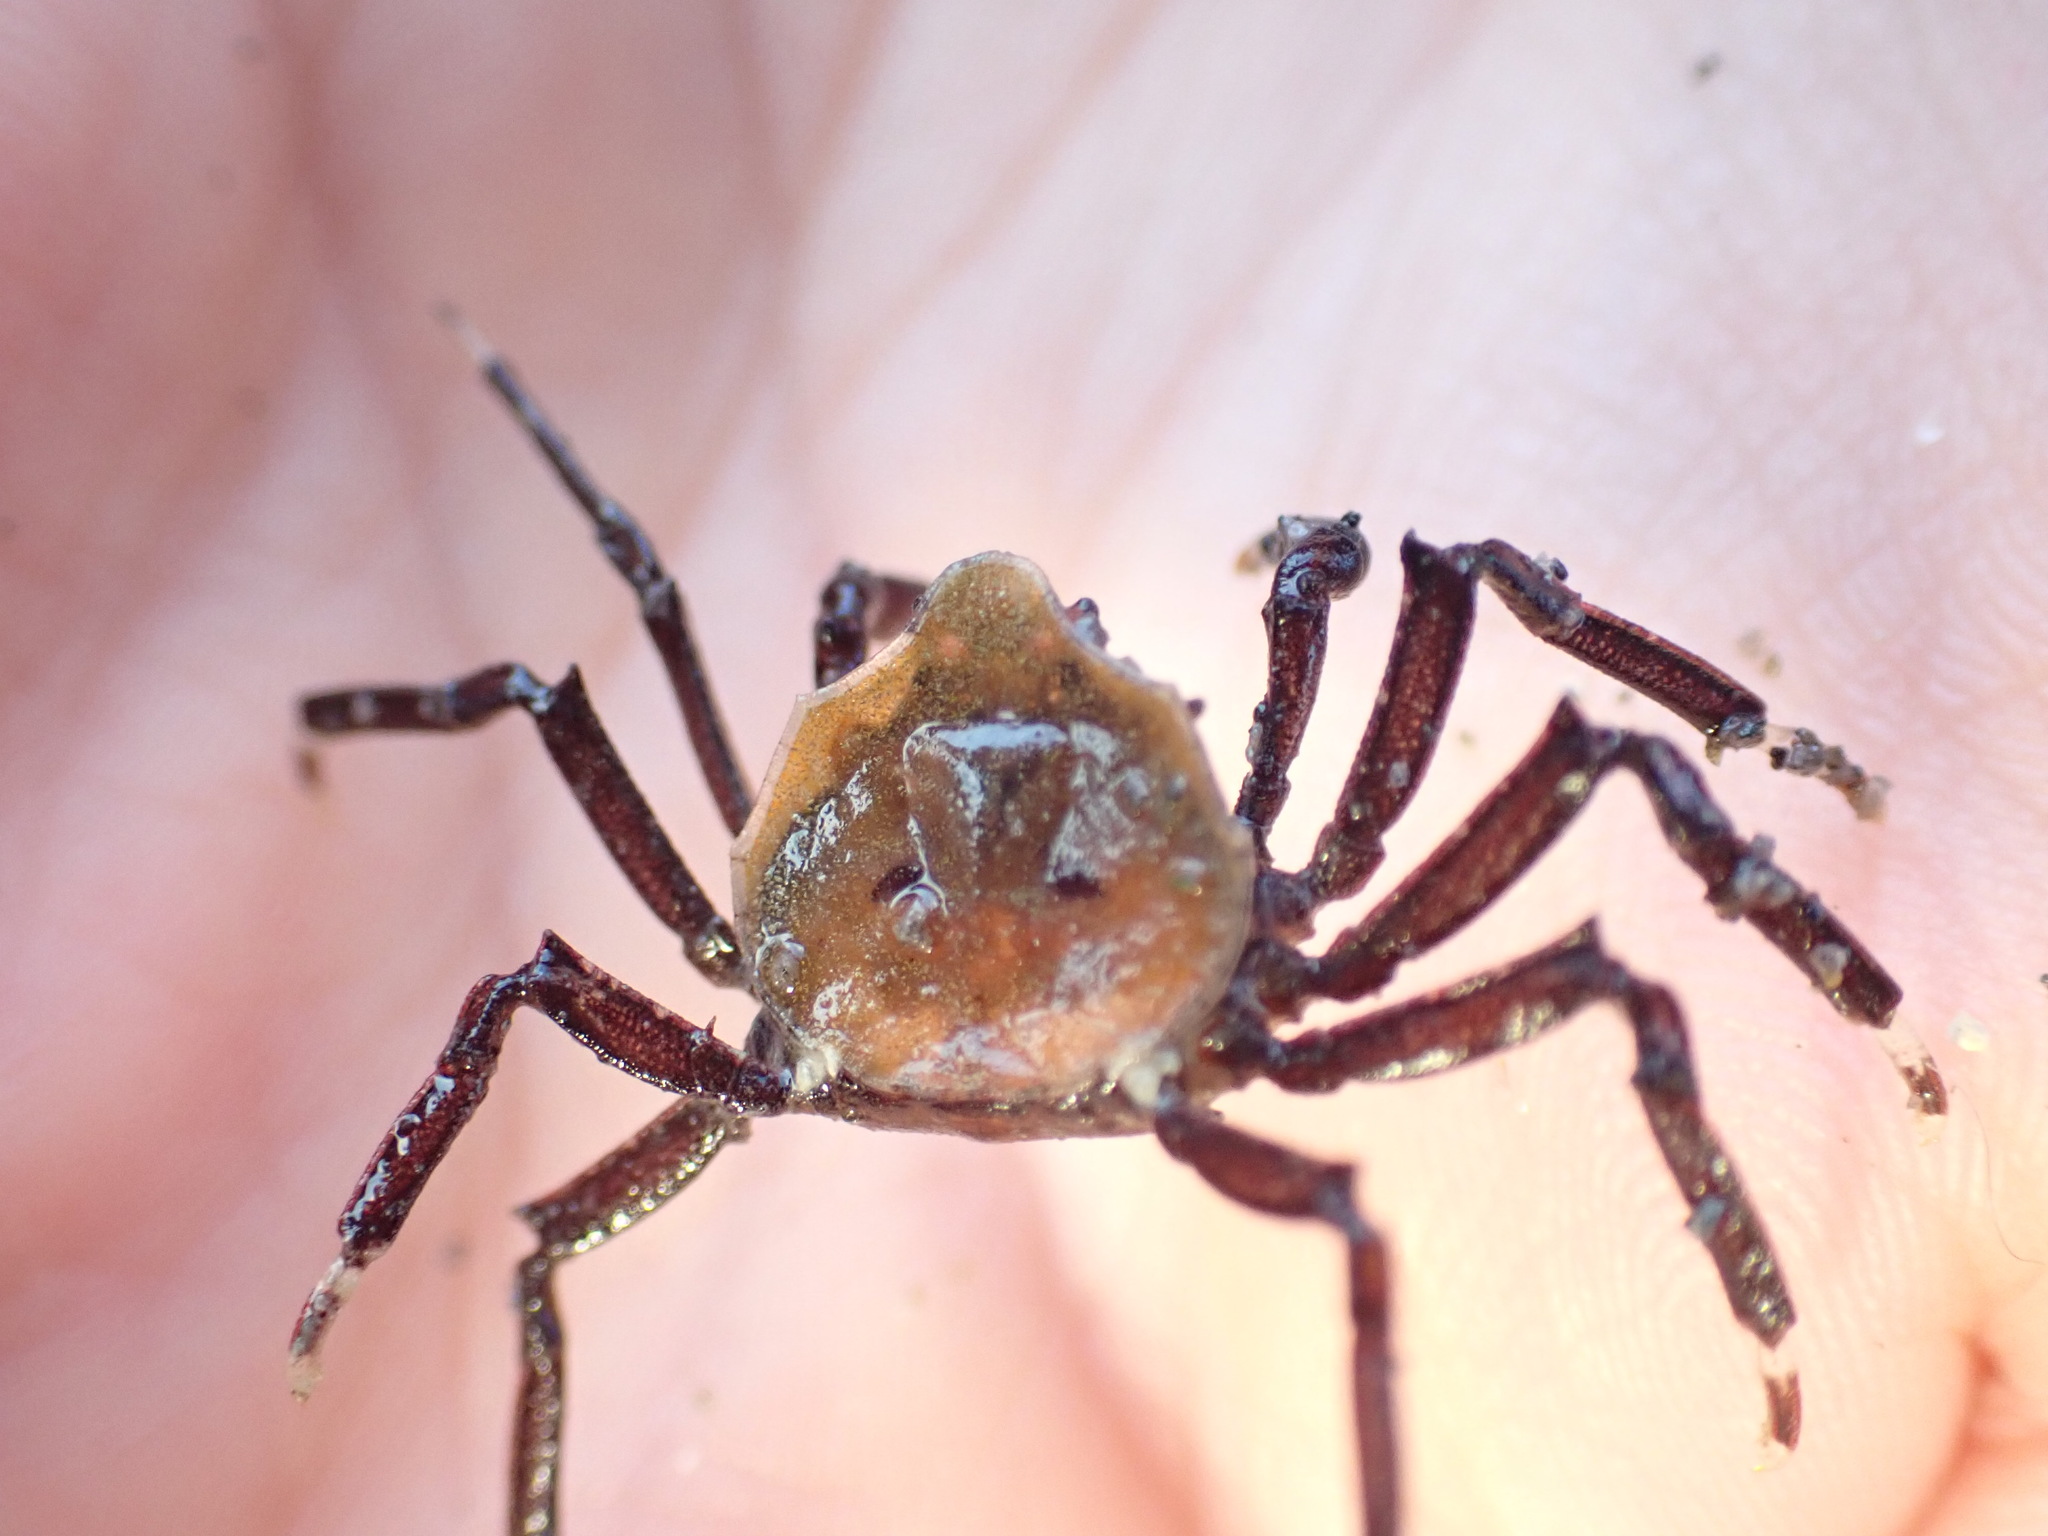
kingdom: Animalia
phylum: Arthropoda
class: Malacostraca
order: Decapoda
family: Hymenosomatidae
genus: Elamena
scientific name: Elamena producta
